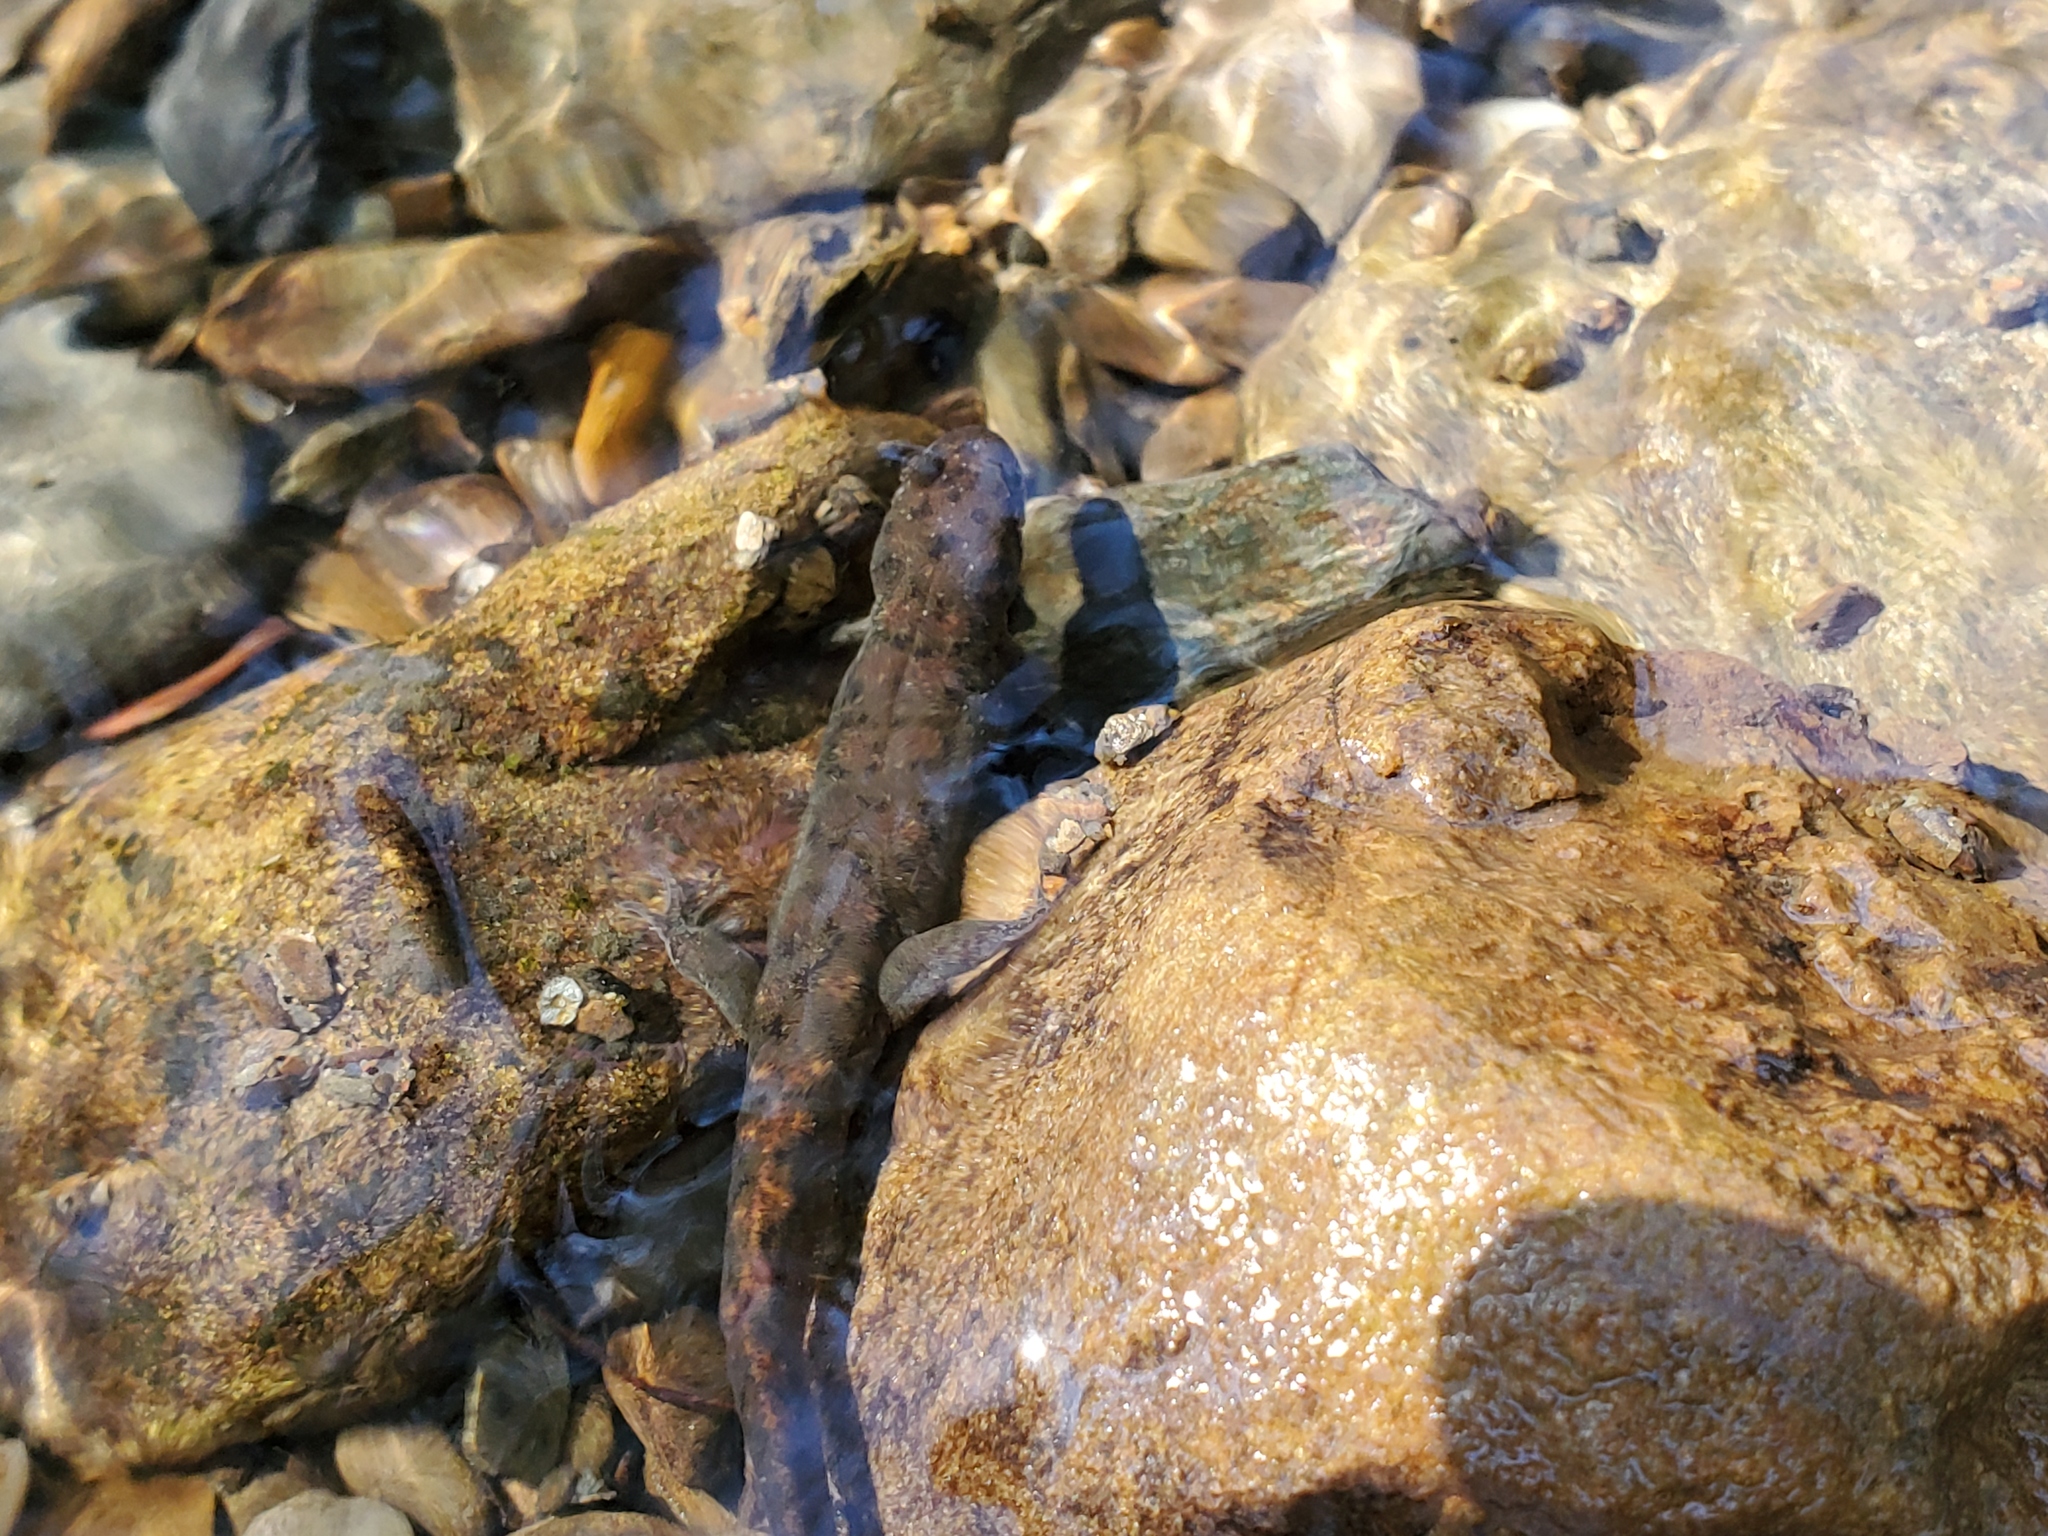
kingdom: Animalia
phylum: Chordata
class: Amphibia
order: Caudata
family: Plethodontidae
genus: Desmognathus
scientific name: Desmognathus monticola
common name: Seal salamander
